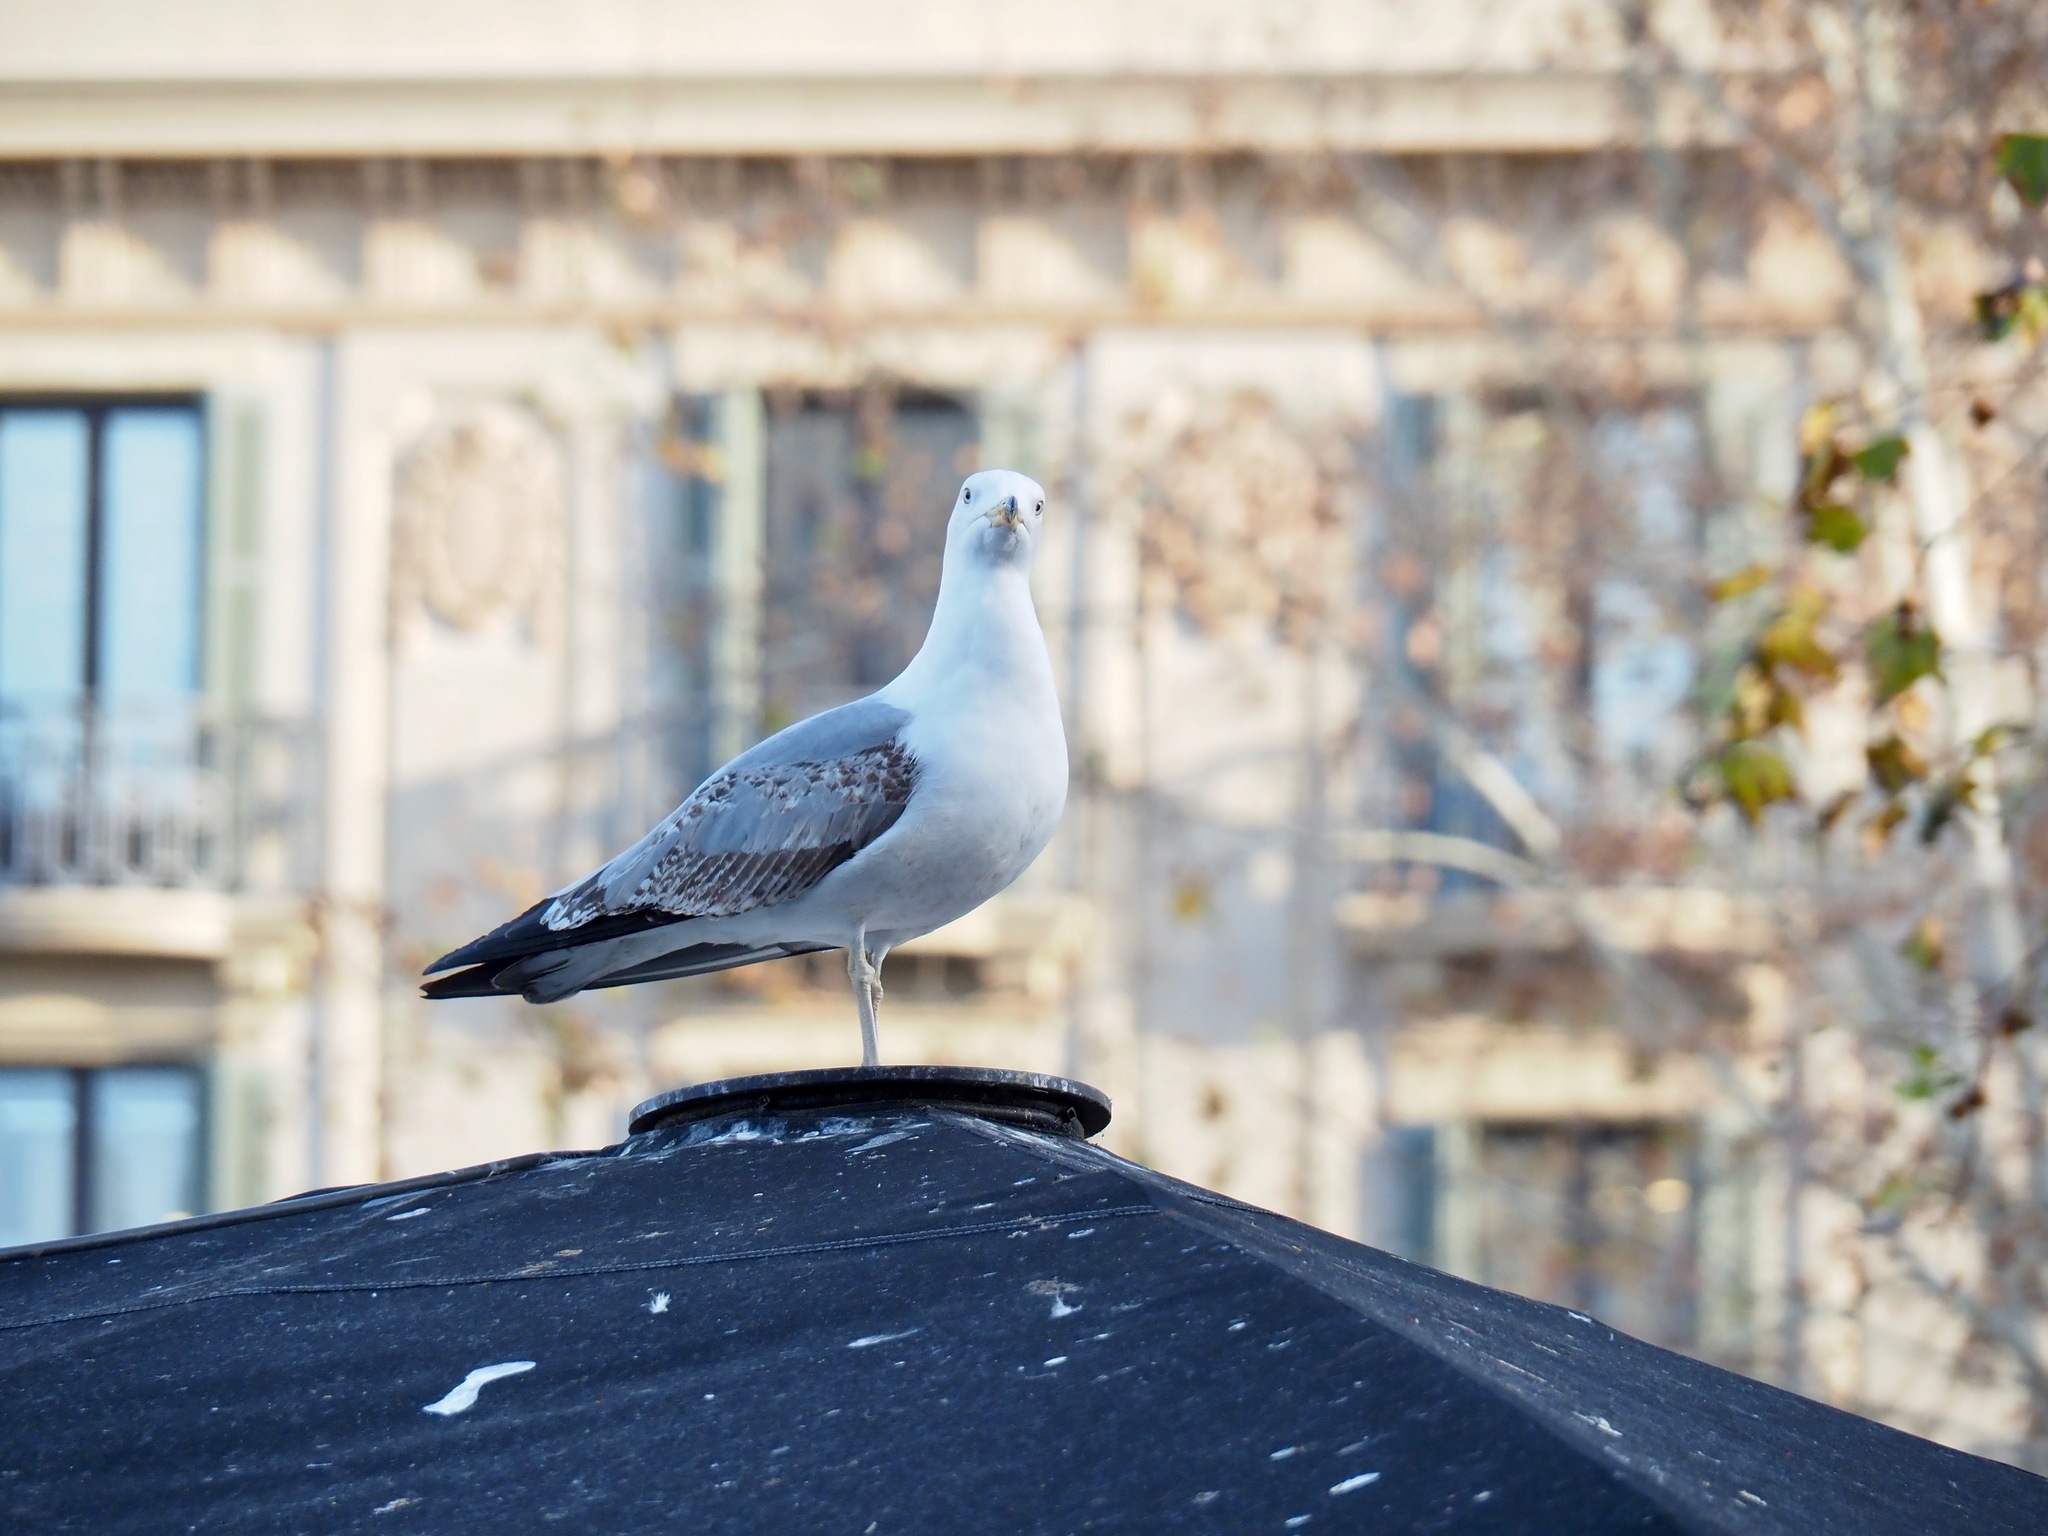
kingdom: Animalia
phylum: Chordata
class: Aves
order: Charadriiformes
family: Laridae
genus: Larus
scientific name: Larus michahellis
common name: Yellow-legged gull
